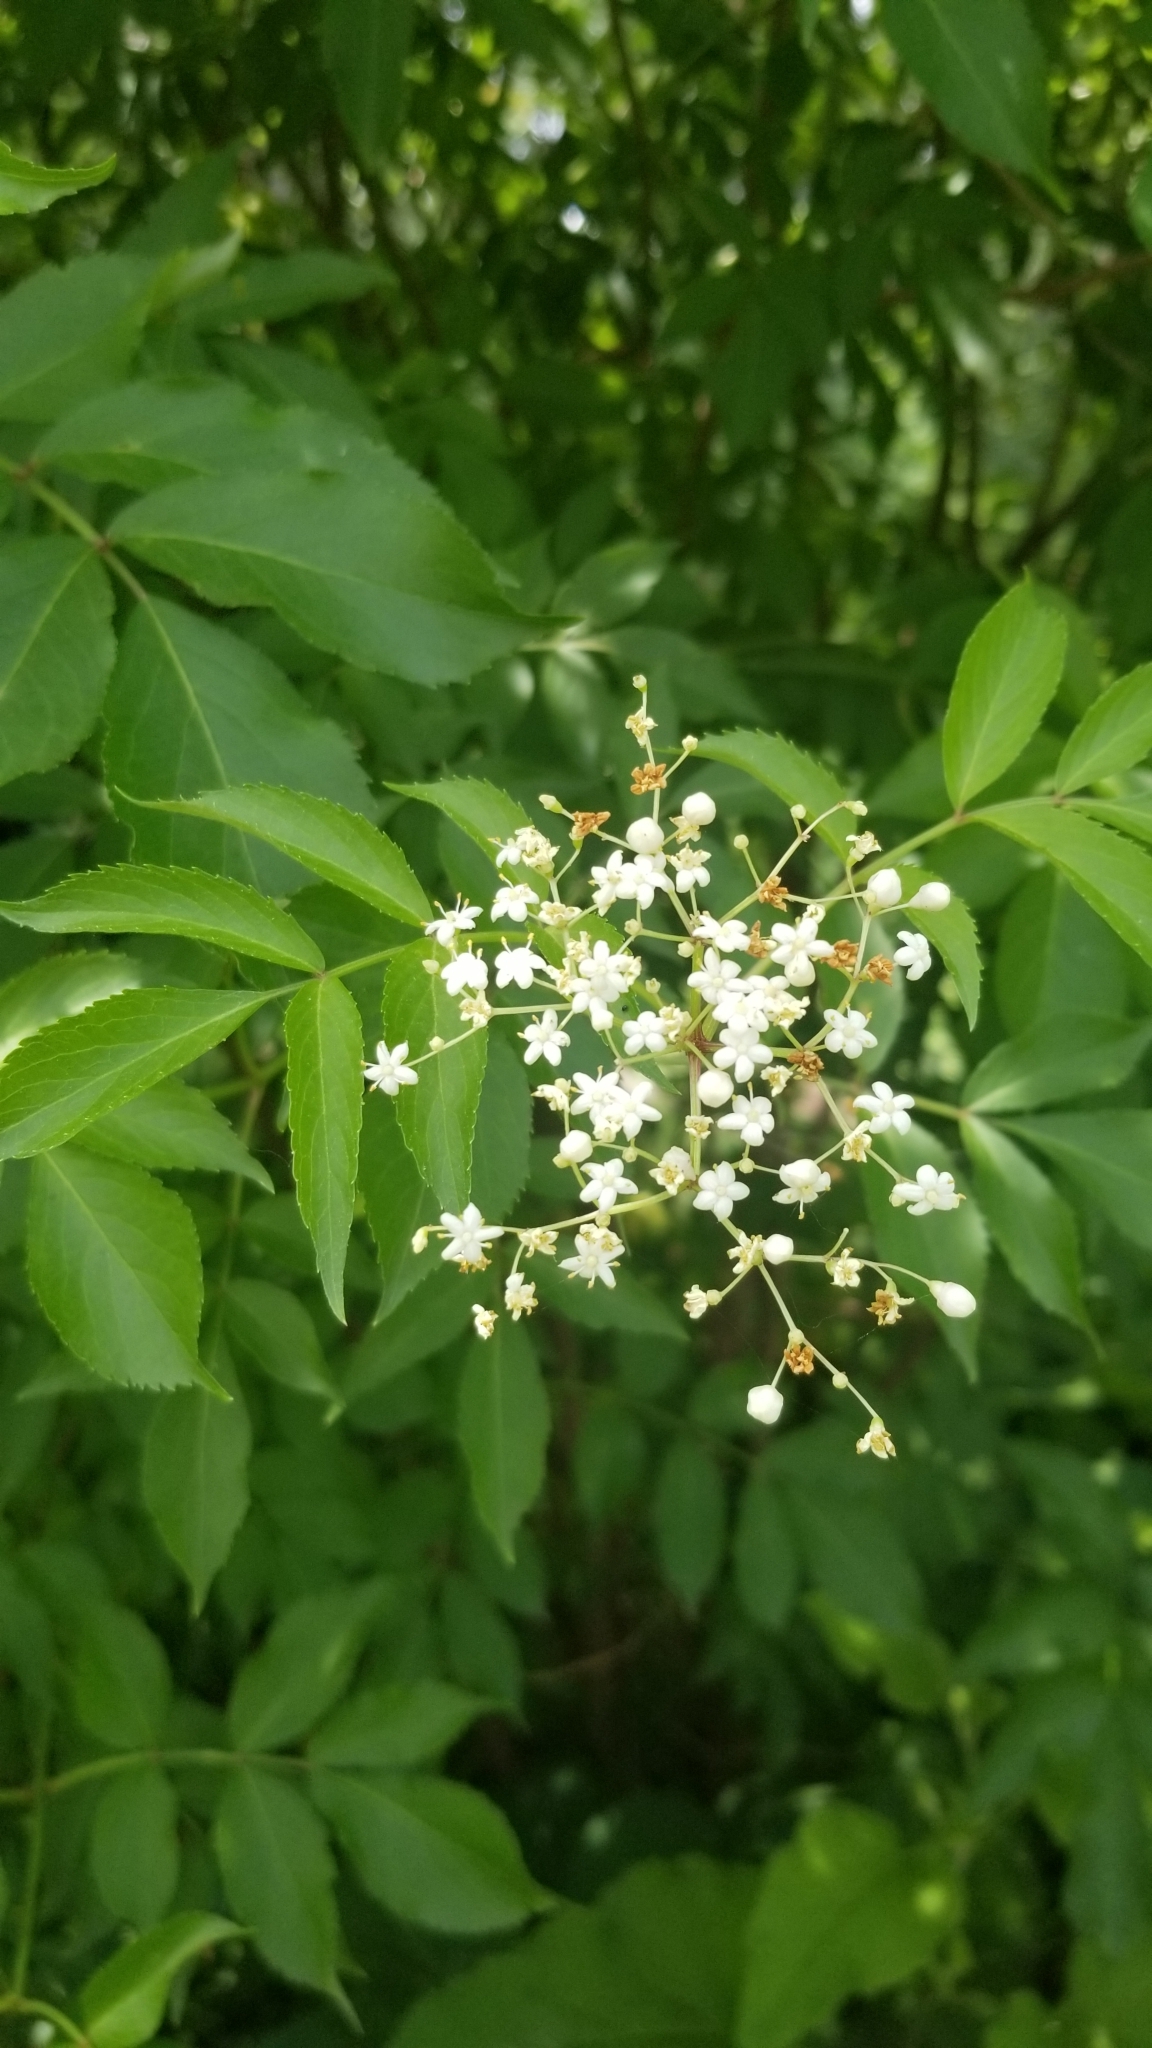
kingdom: Plantae
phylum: Tracheophyta
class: Magnoliopsida
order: Dipsacales
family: Viburnaceae
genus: Sambucus
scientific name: Sambucus canadensis
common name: American elder
